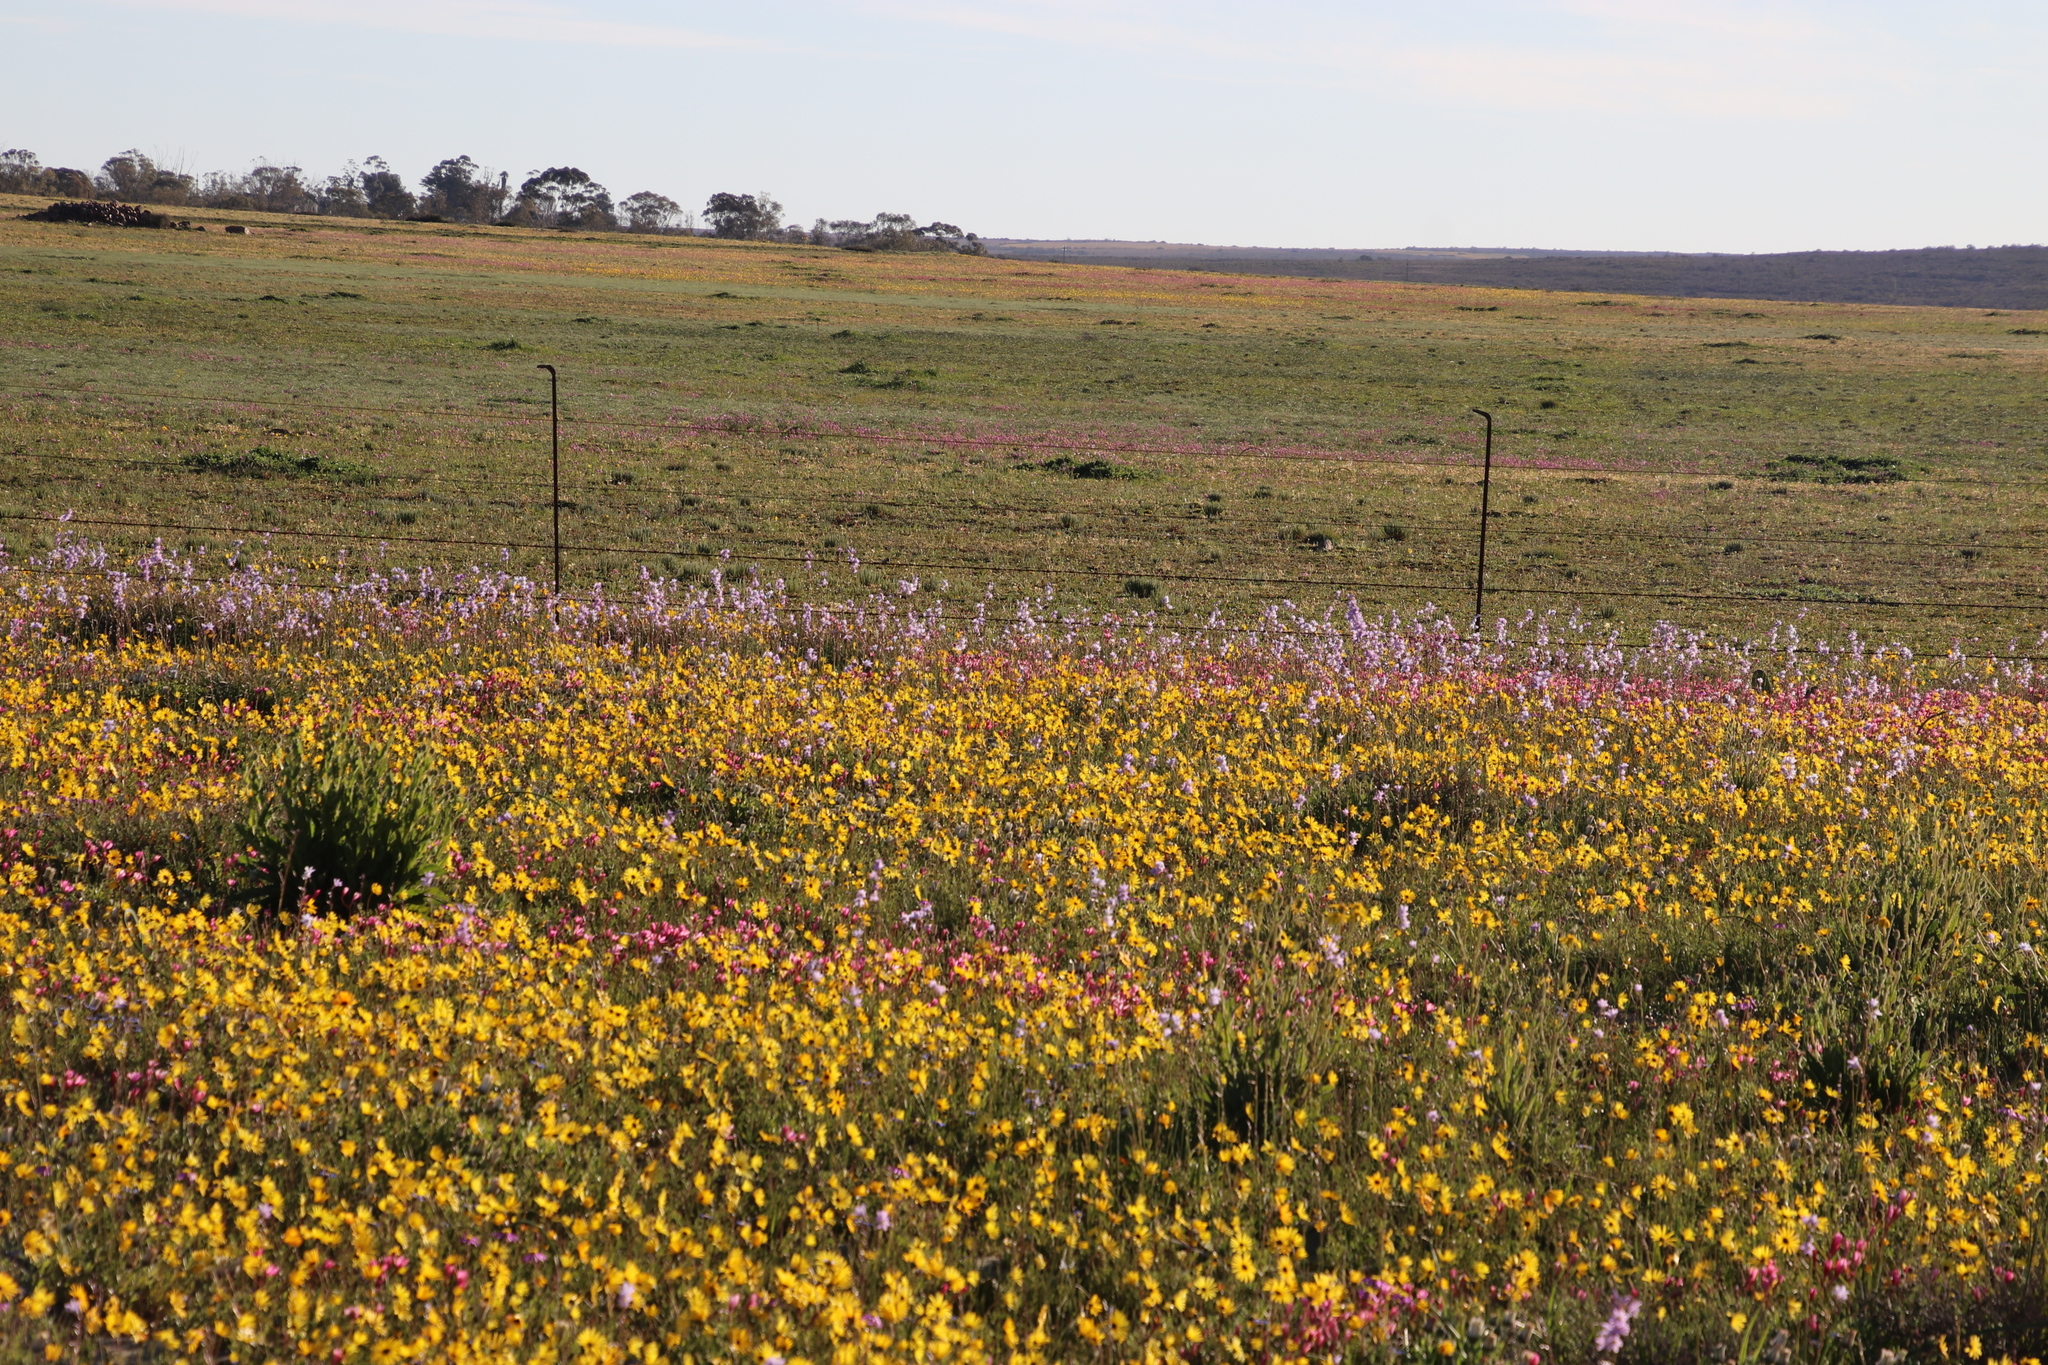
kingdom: Plantae
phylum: Tracheophyta
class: Liliopsida
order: Asparagales
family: Iridaceae
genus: Ixia
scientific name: Ixia rapunculoides
